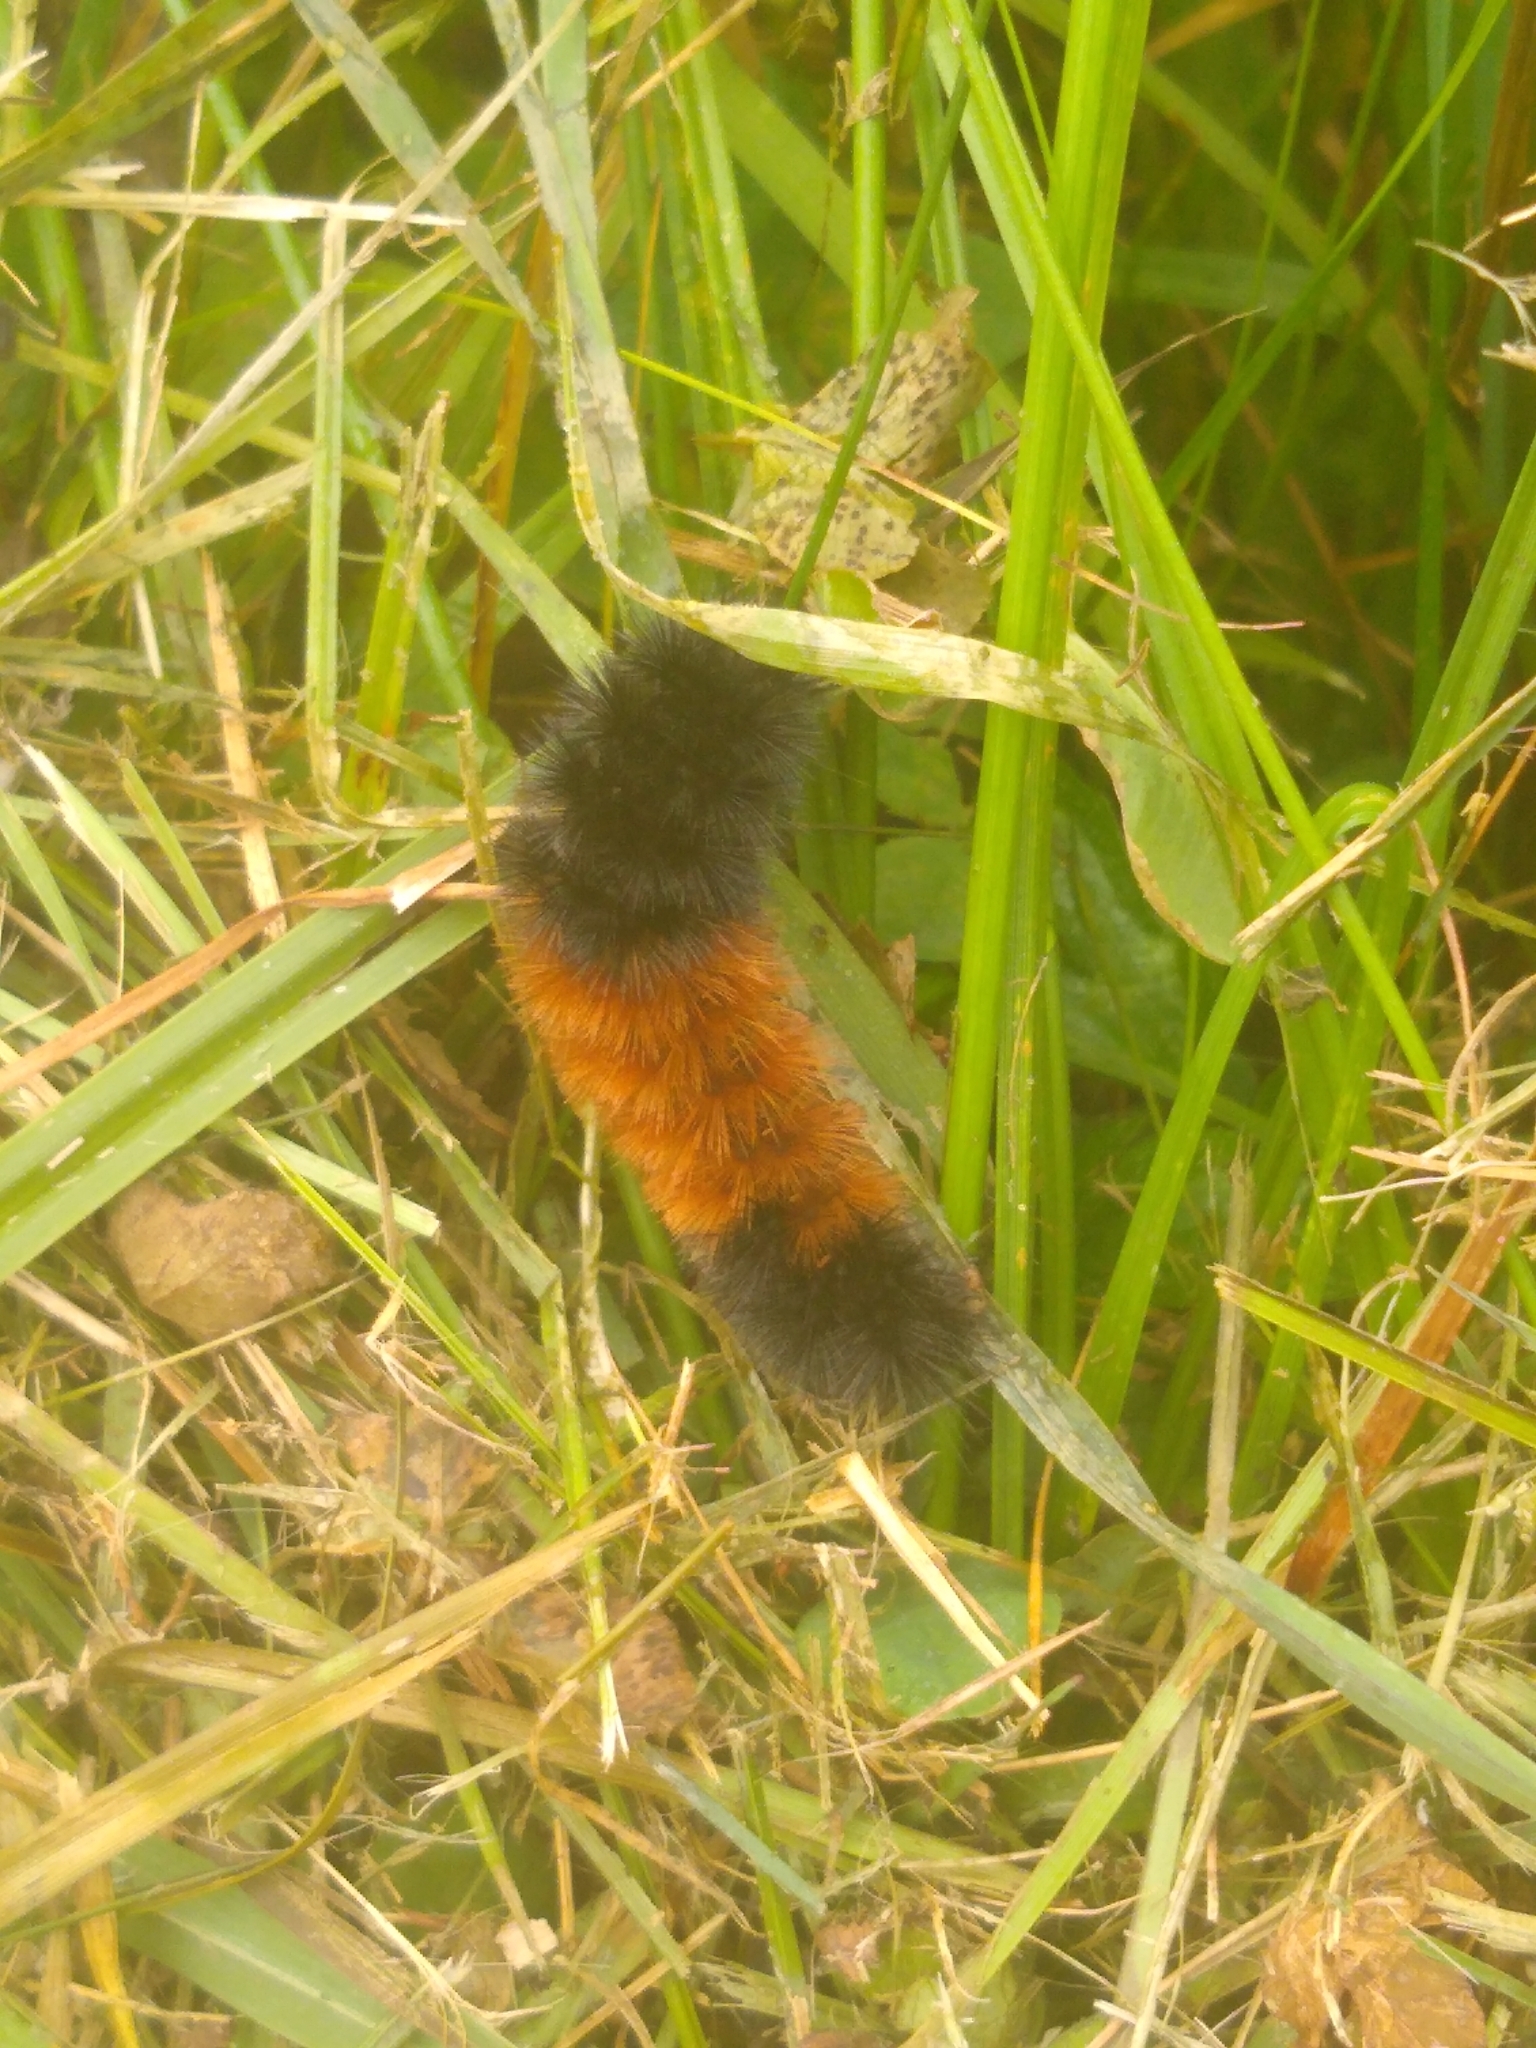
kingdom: Animalia
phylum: Arthropoda
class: Insecta
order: Lepidoptera
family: Erebidae
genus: Pyrrharctia
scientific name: Pyrrharctia isabella
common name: Isabella tiger moth
